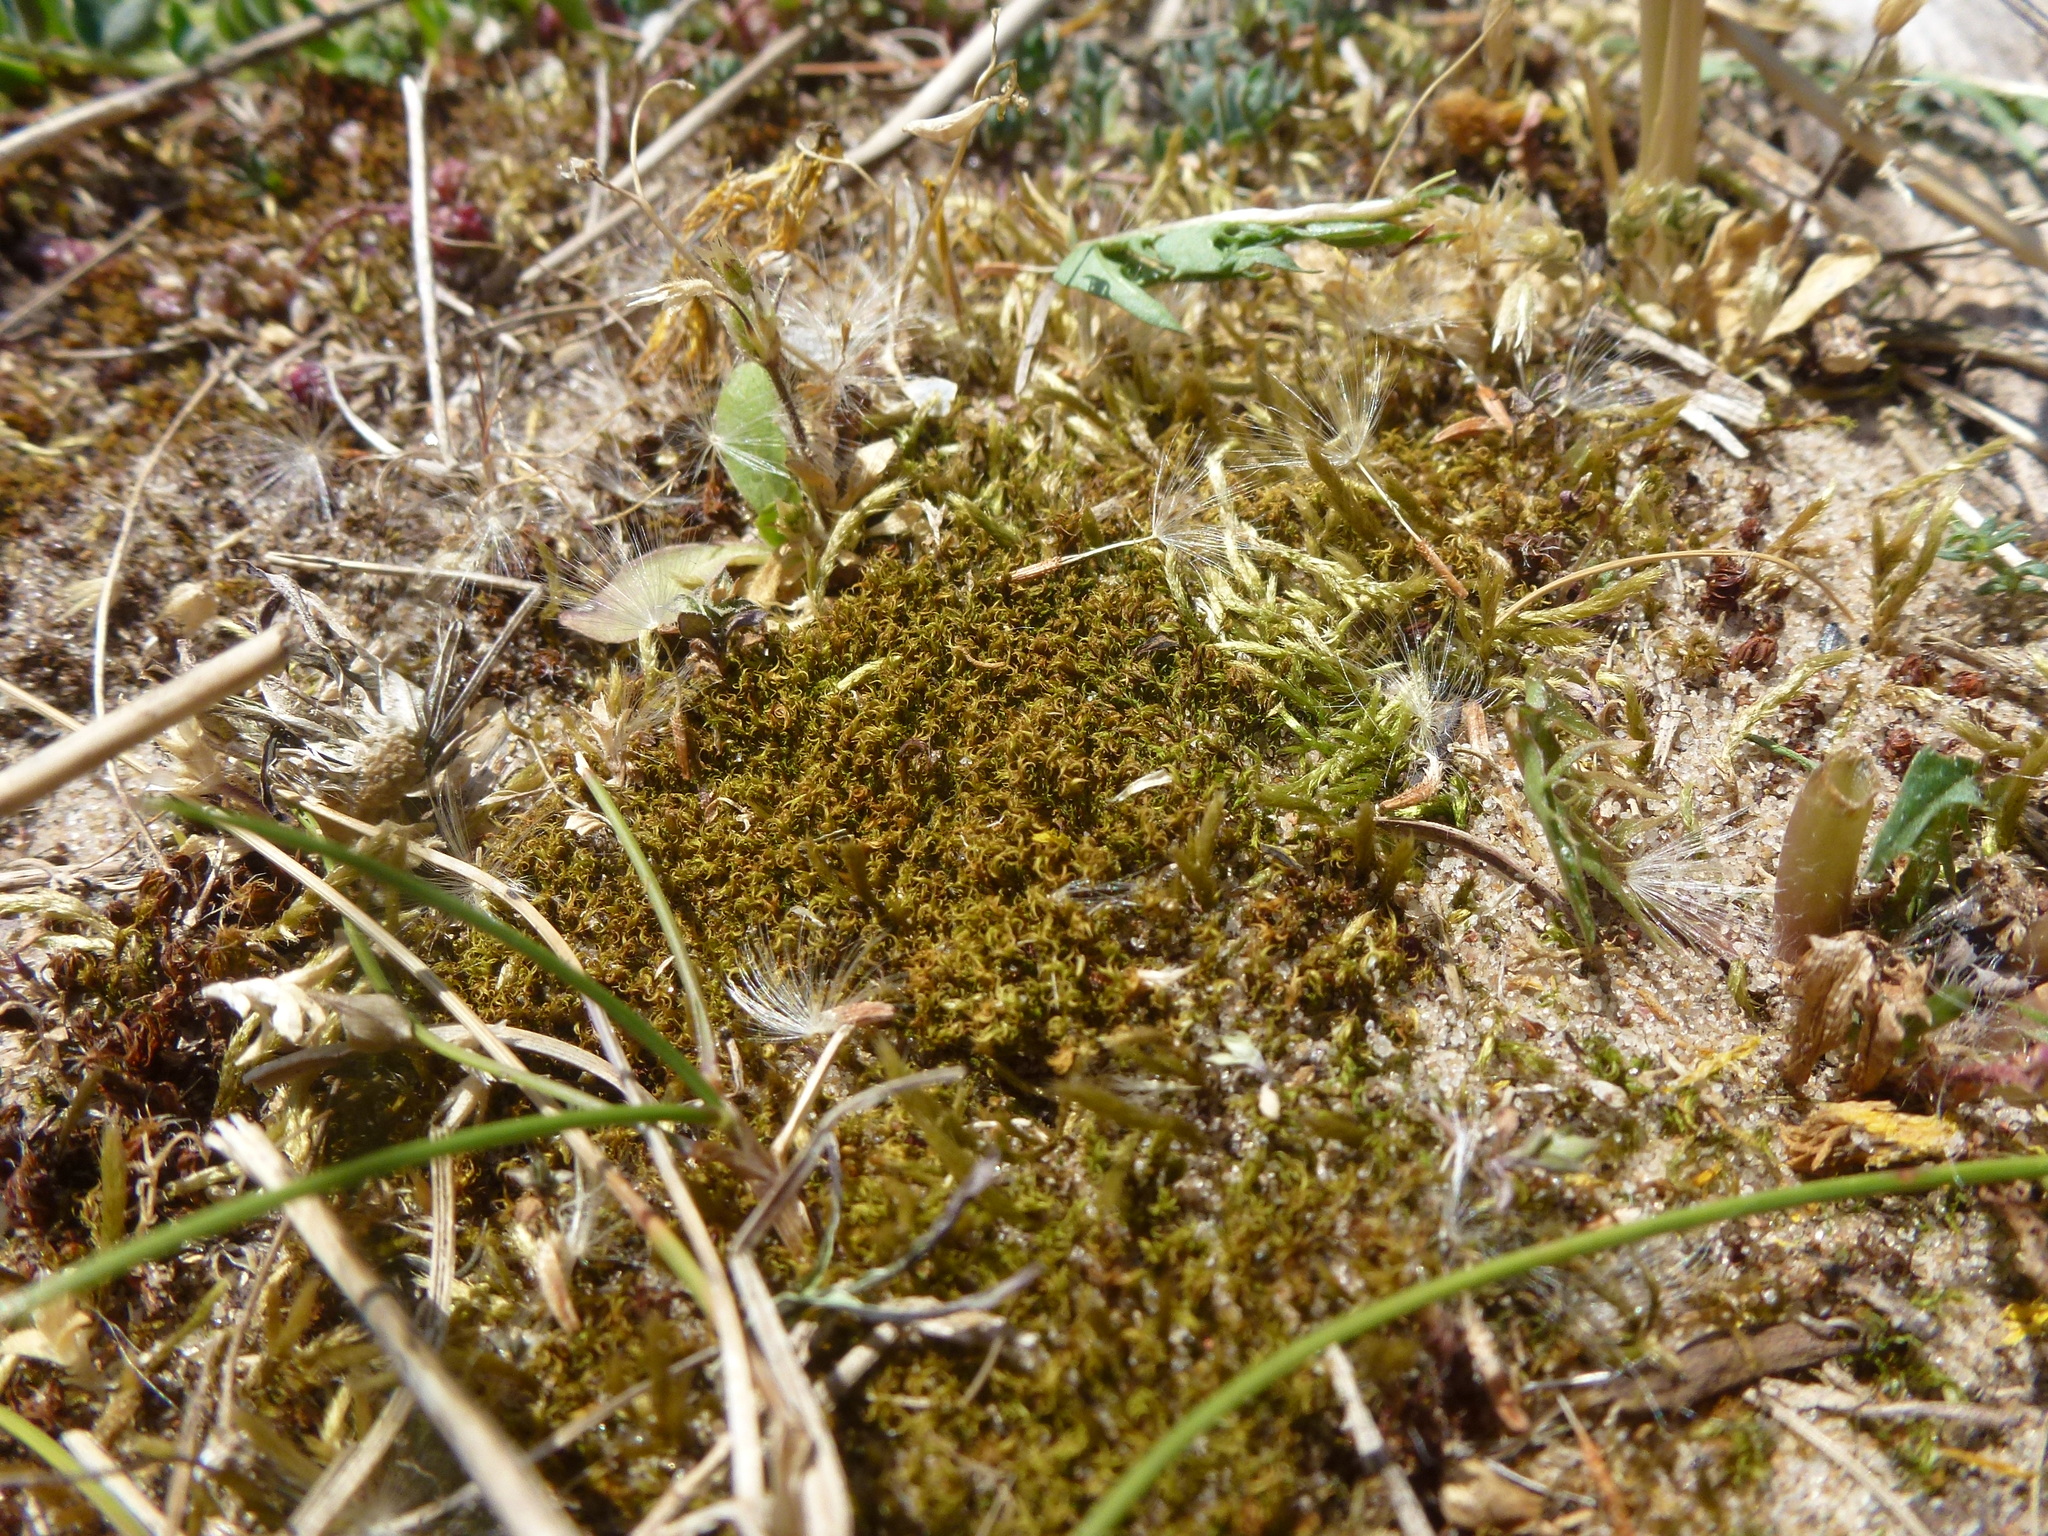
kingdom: Plantae
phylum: Bryophyta
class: Bryopsida
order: Dicranales
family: Ditrichaceae
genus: Ceratodon
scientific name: Ceratodon purpureus
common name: Redshank
